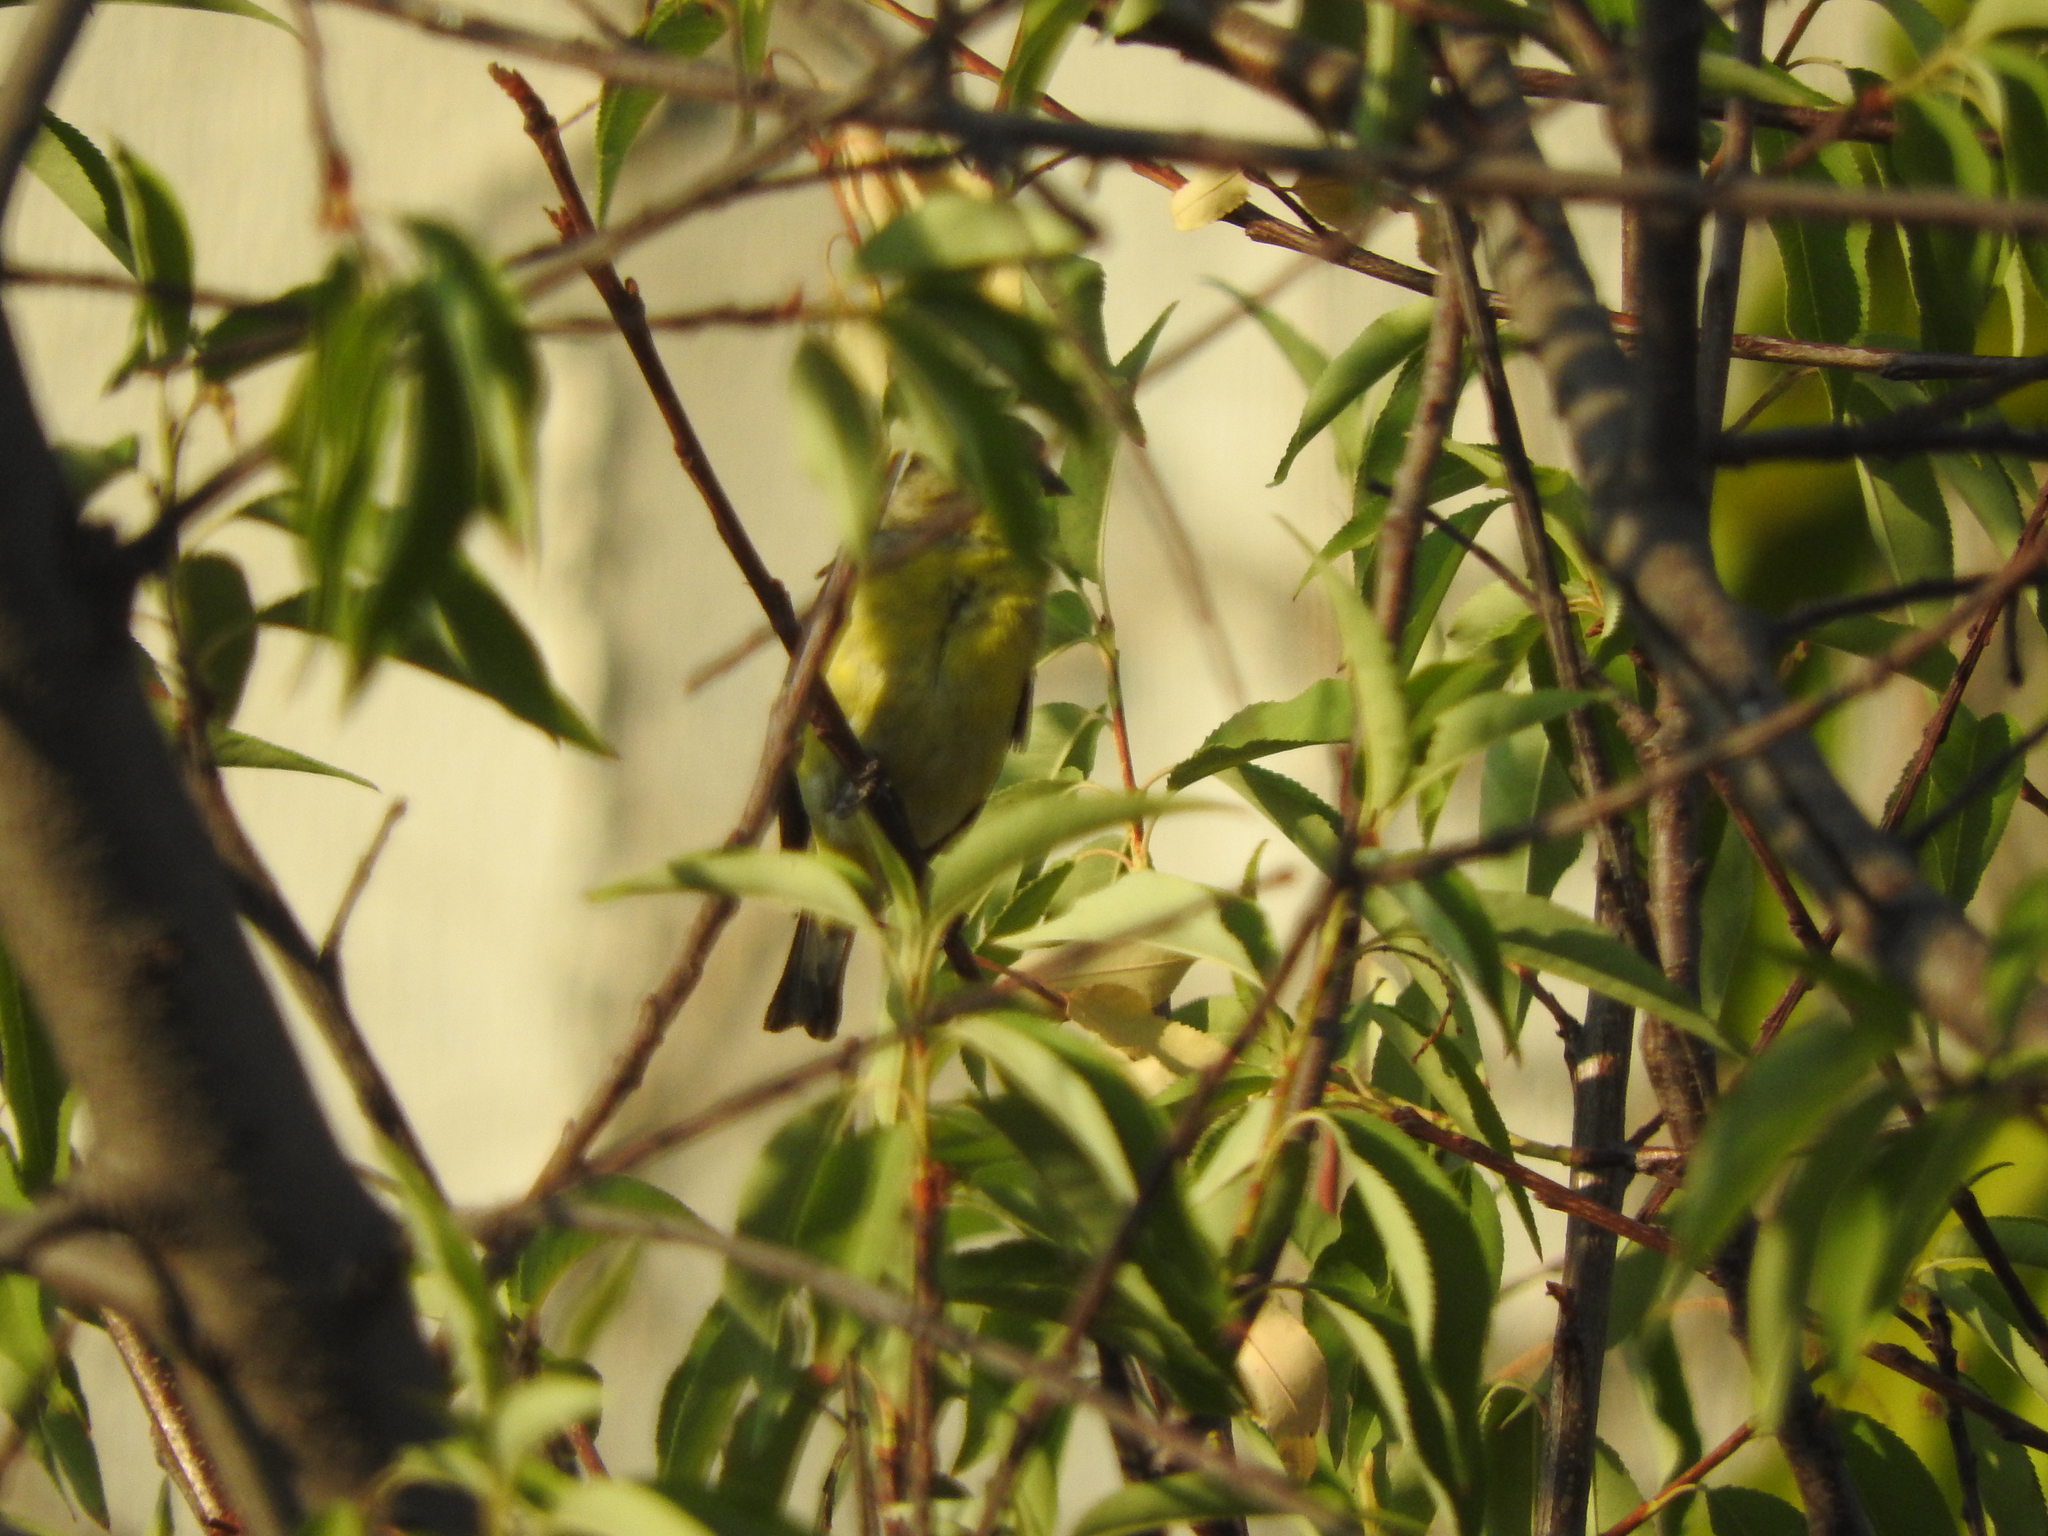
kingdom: Animalia
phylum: Chordata
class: Aves
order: Passeriformes
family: Fringillidae
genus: Spinus
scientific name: Spinus psaltria
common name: Lesser goldfinch
